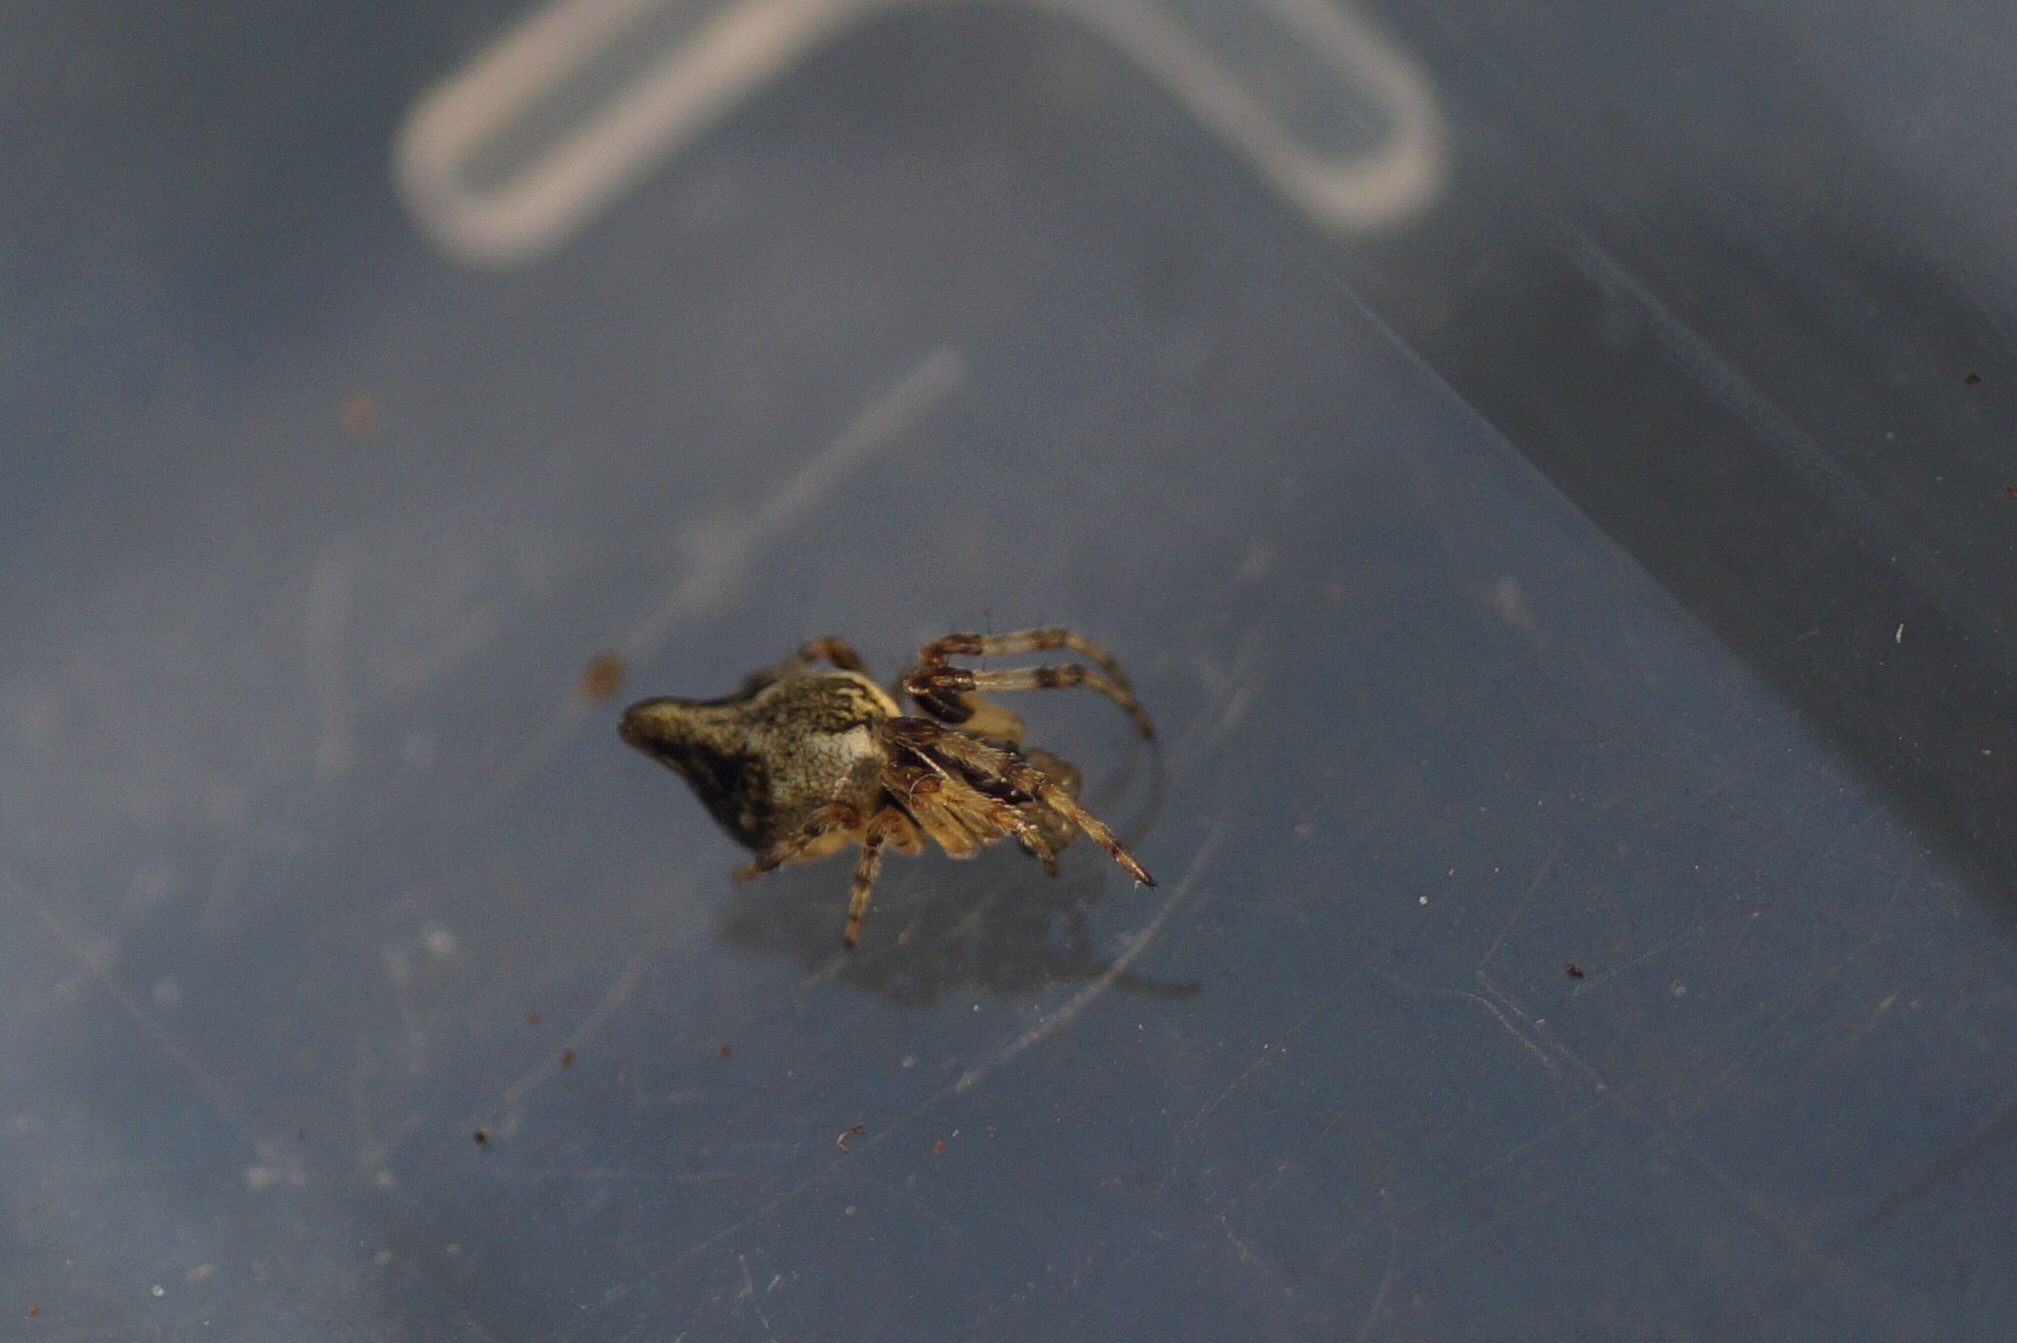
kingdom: Animalia
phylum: Arthropoda
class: Arachnida
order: Araneae
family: Araneidae
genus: Cyclosa
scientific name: Cyclosa conica
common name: Conical trashline orbweaver
